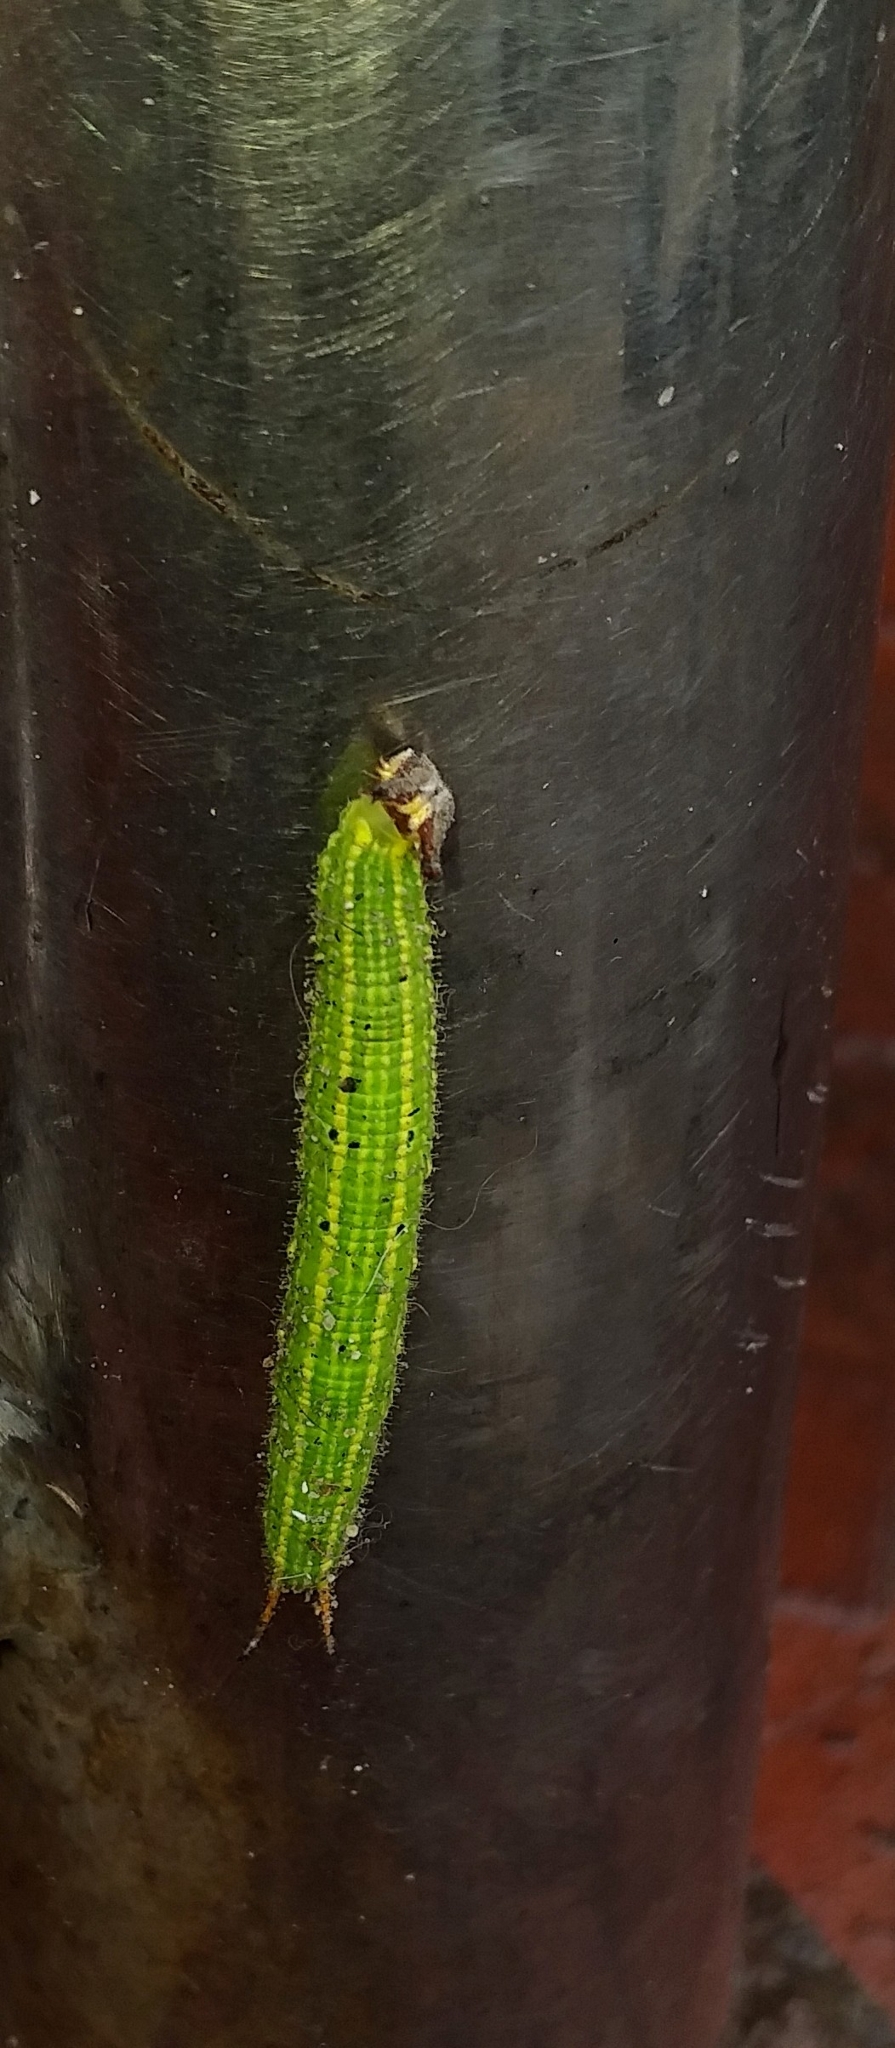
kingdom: Animalia
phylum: Arthropoda
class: Insecta
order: Lepidoptera
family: Nymphalidae
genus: Elymnias
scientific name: Elymnias caudata
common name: Tailed palmfly
